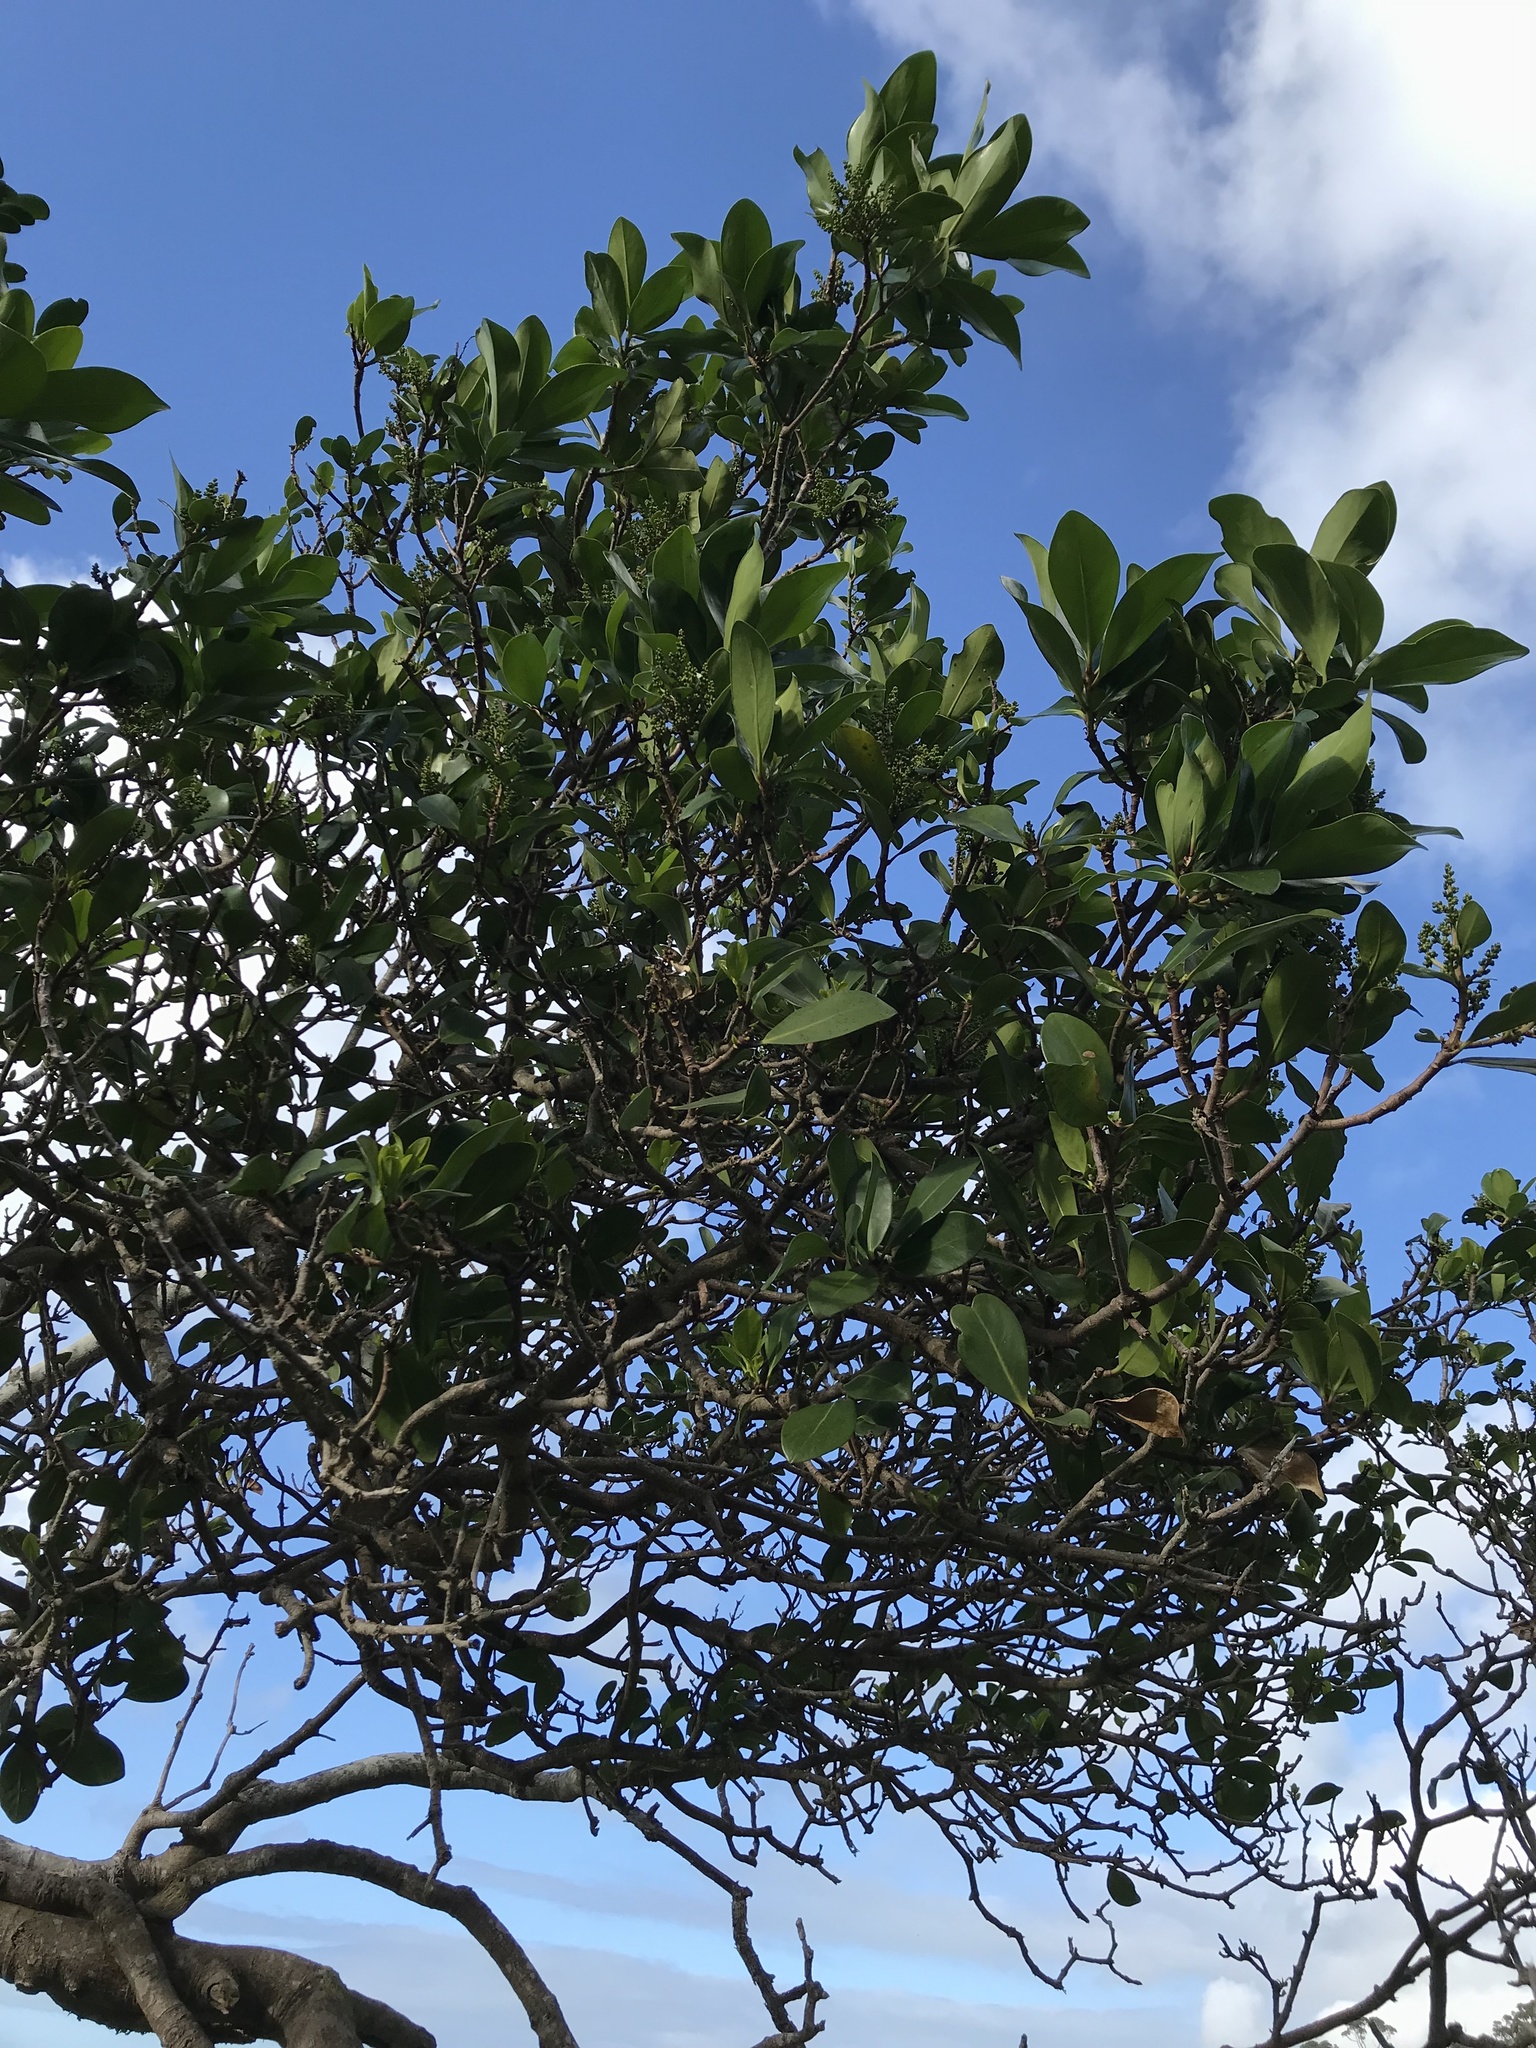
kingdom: Plantae
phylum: Tracheophyta
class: Magnoliopsida
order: Cucurbitales
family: Corynocarpaceae
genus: Corynocarpus
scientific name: Corynocarpus laevigatus
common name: New zealand laurel
